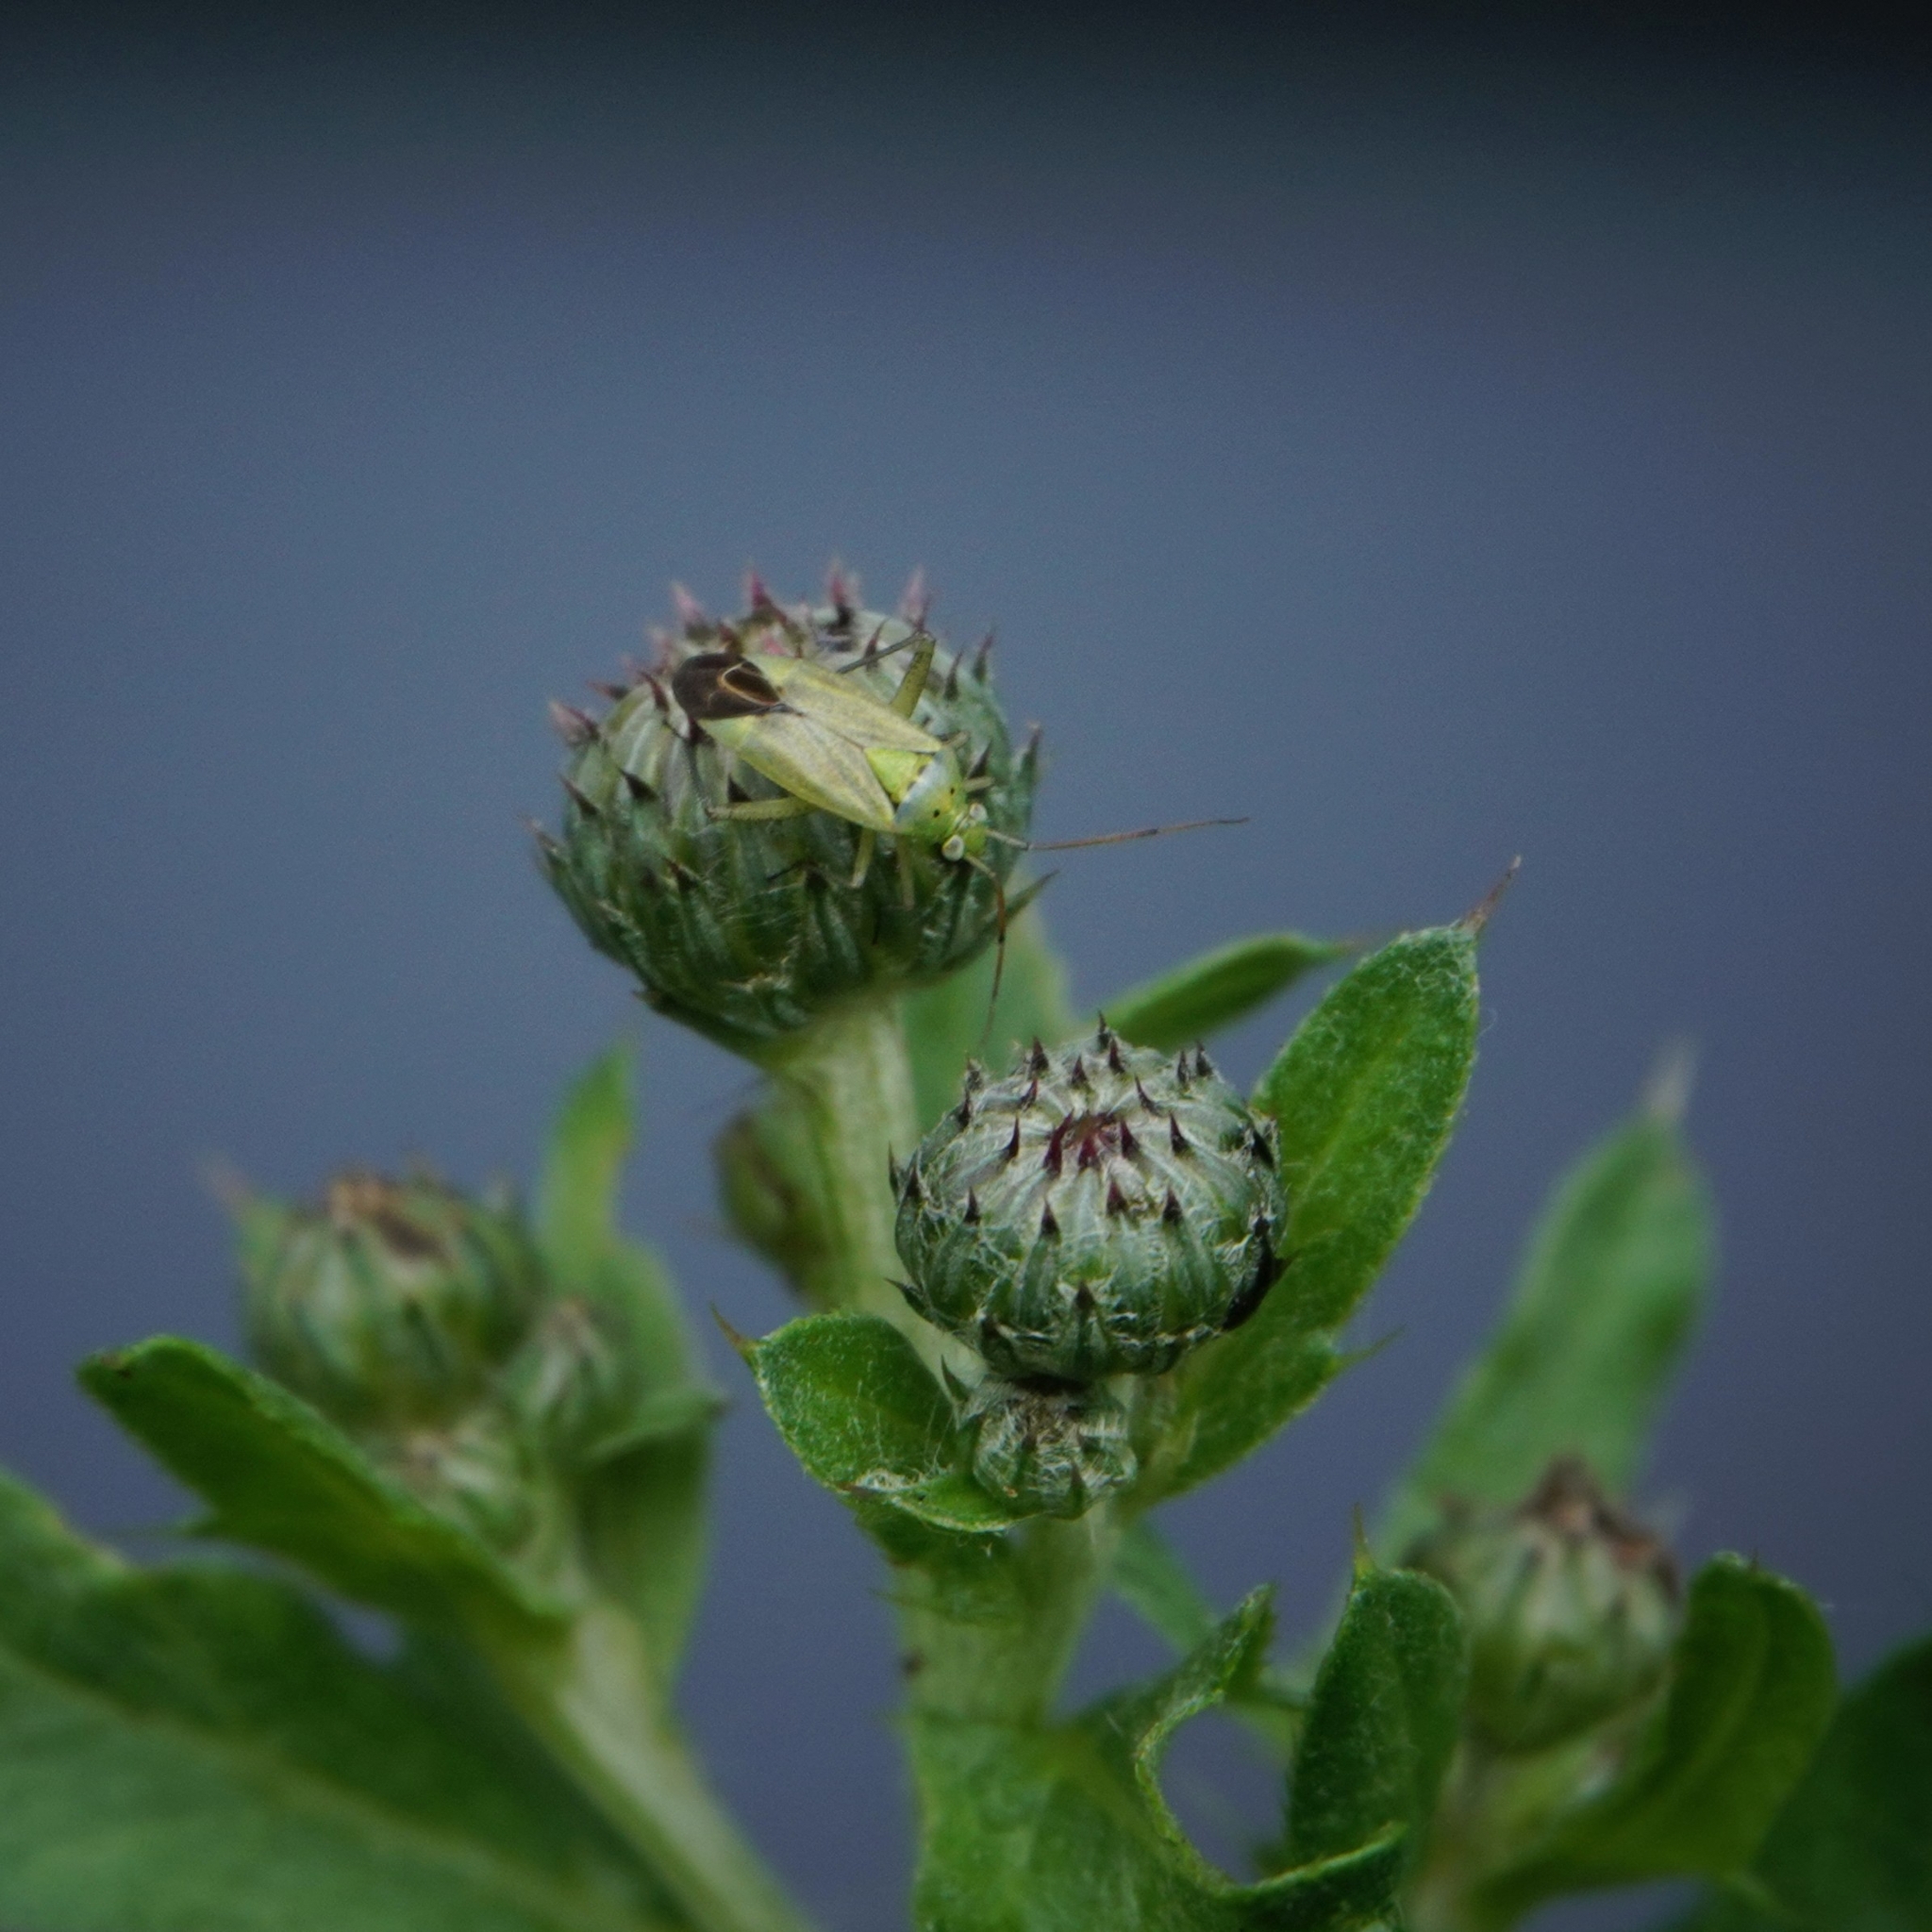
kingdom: Animalia
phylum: Arthropoda
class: Insecta
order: Hemiptera
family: Miridae
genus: Closterotomus
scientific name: Closterotomus norvegicus
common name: Plant bug
